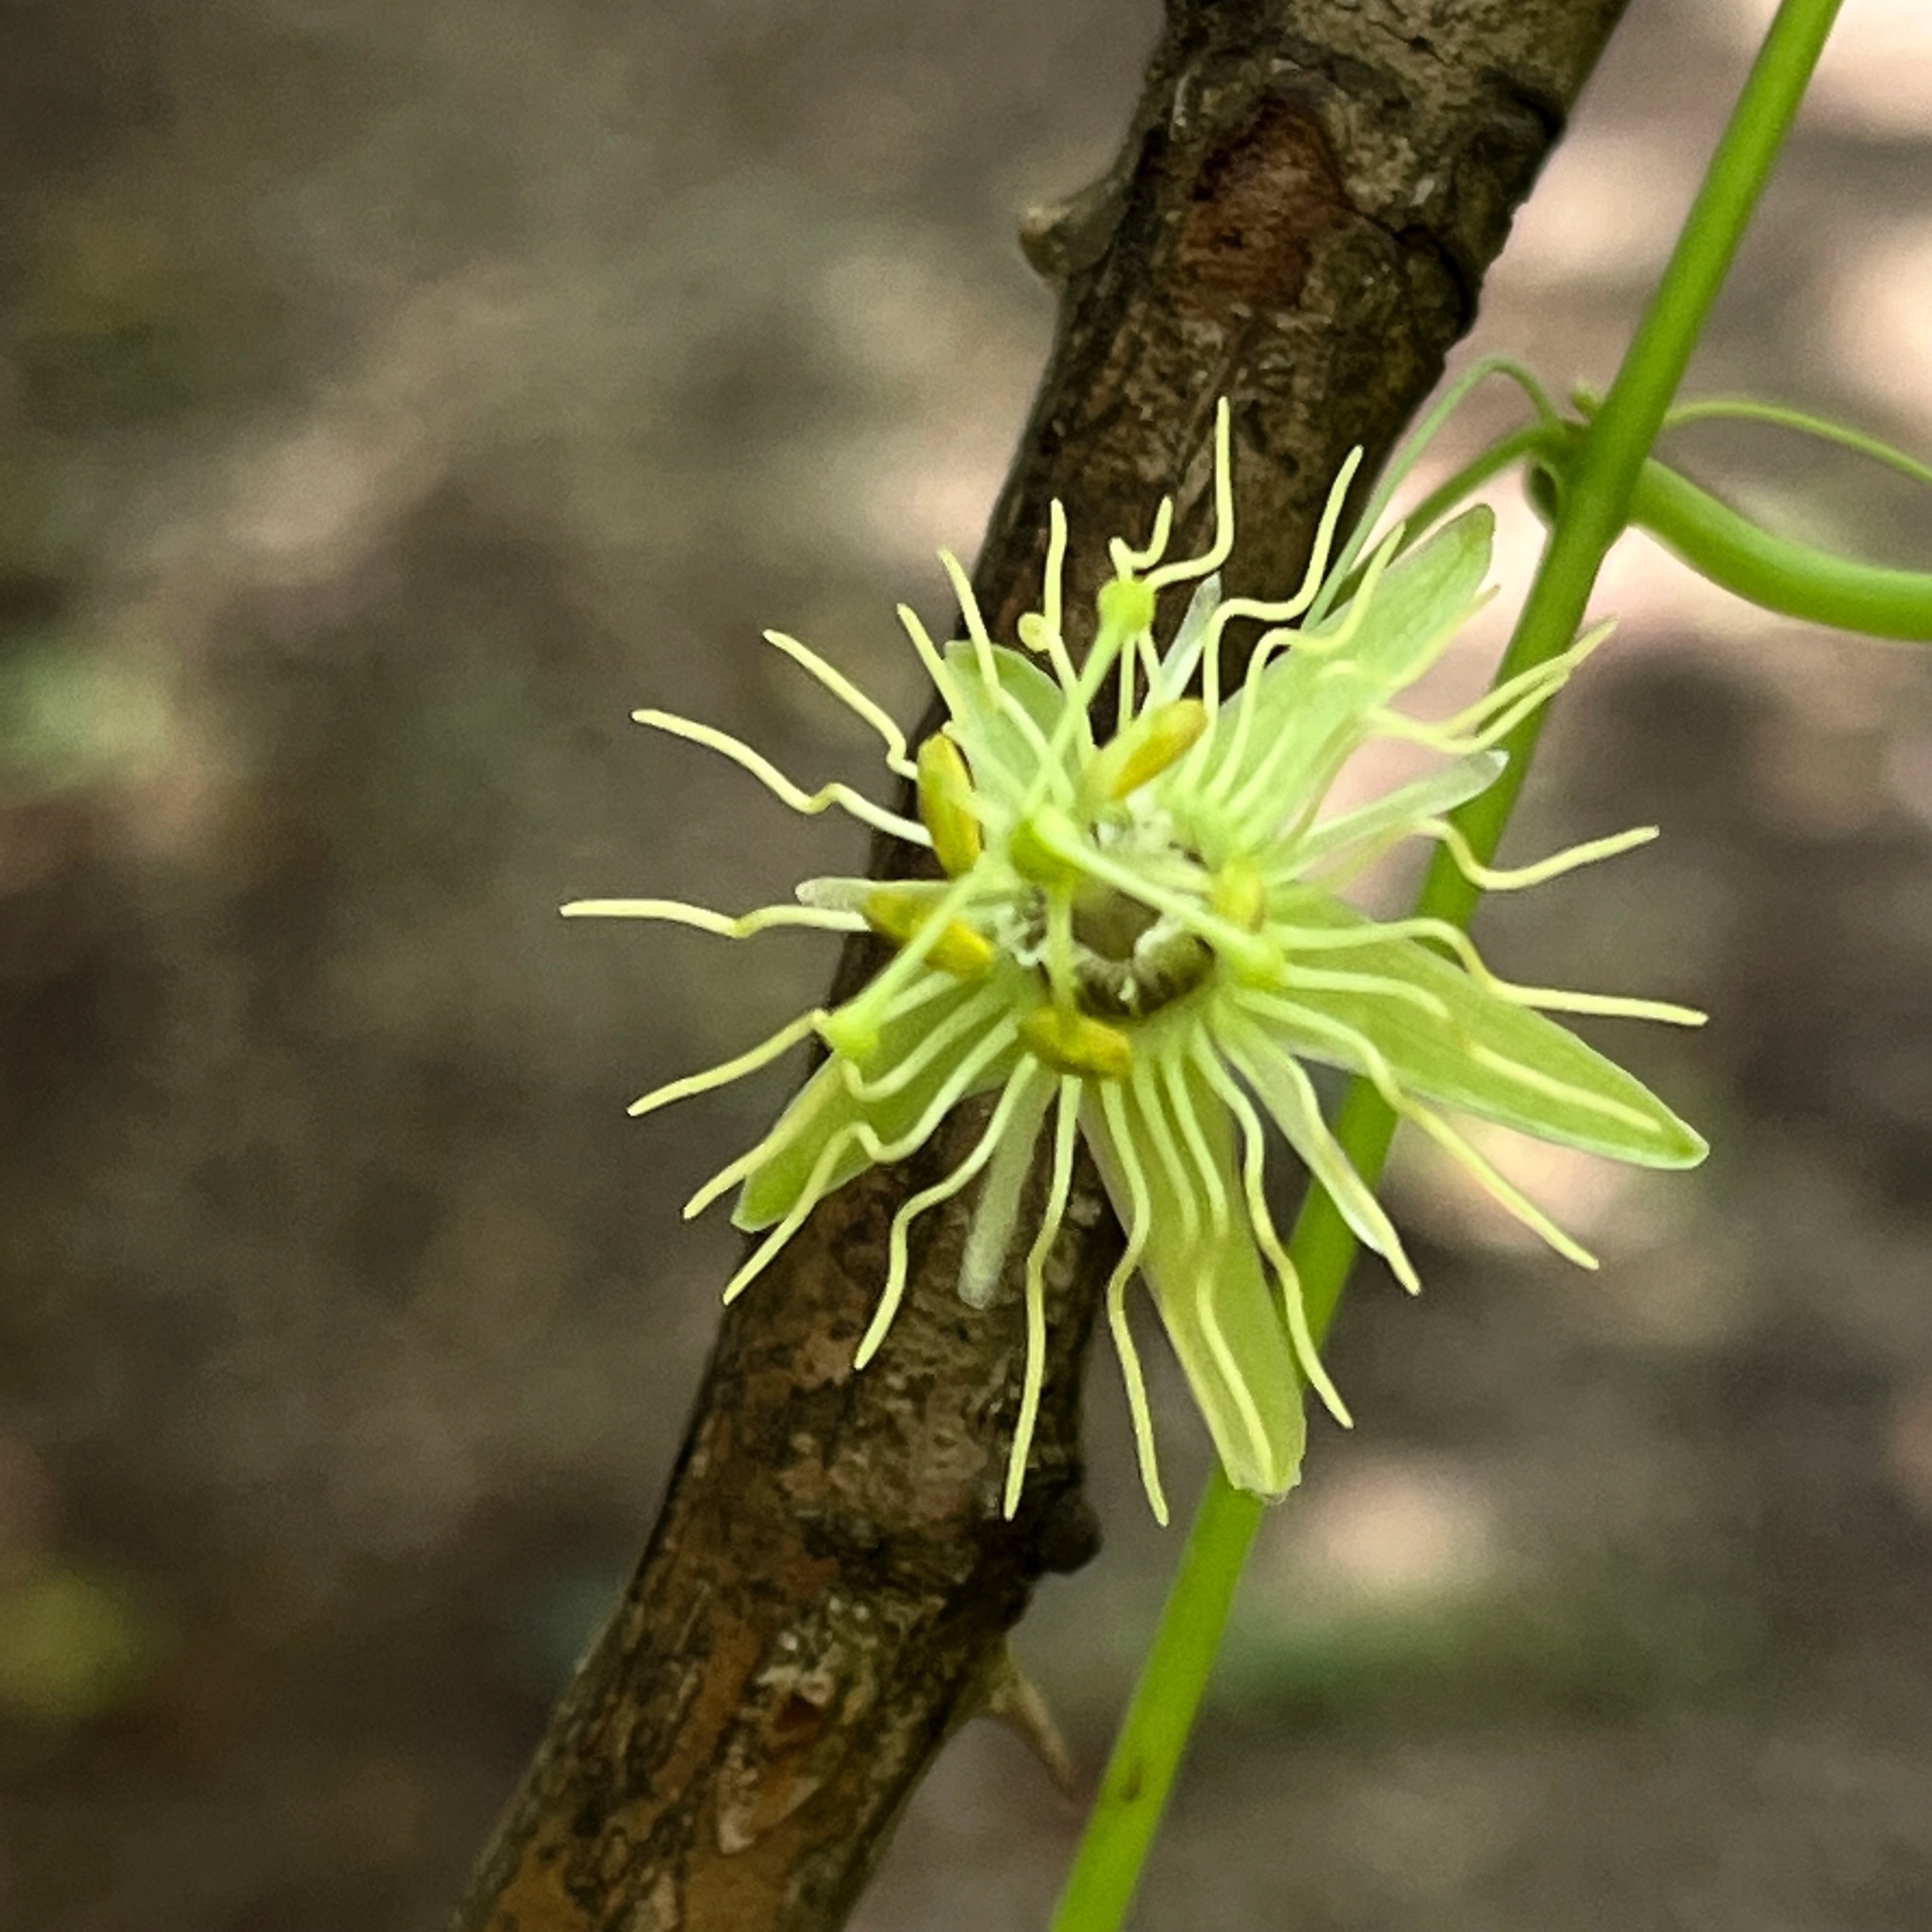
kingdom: Plantae
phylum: Tracheophyta
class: Magnoliopsida
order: Malpighiales
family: Passifloraceae
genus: Passiflora
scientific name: Passiflora lutea
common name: Yellow passionflower
